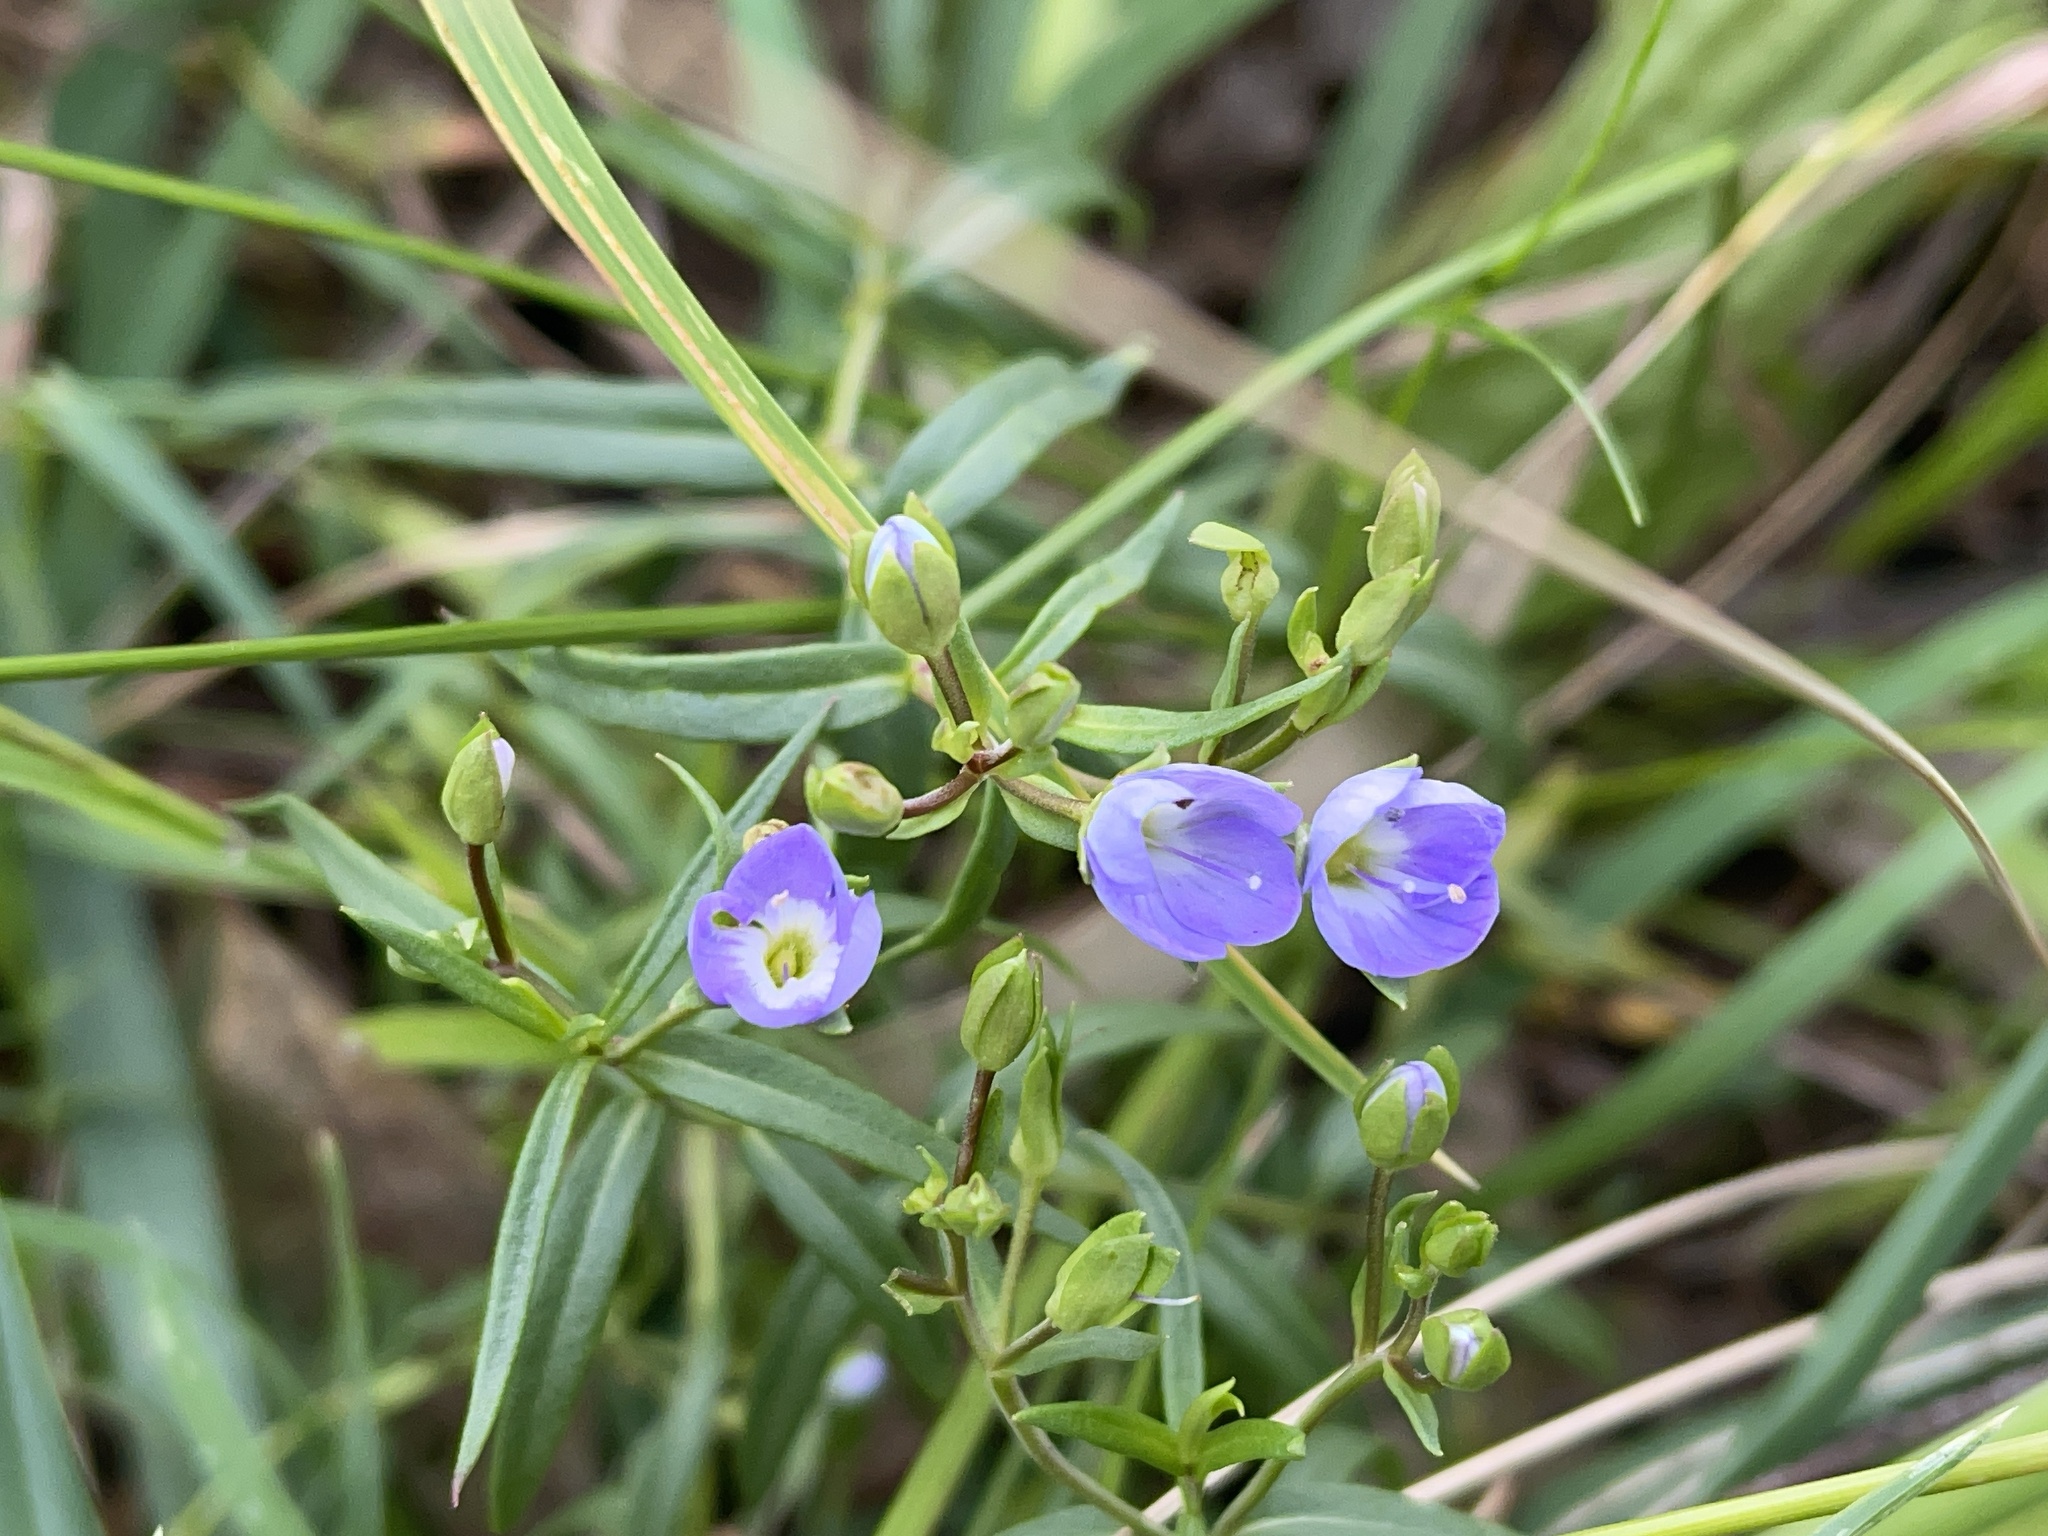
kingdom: Plantae
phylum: Tracheophyta
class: Magnoliopsida
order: Lamiales
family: Plantaginaceae
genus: Veronica
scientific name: Veronica gracilis
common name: Slender speedwell
